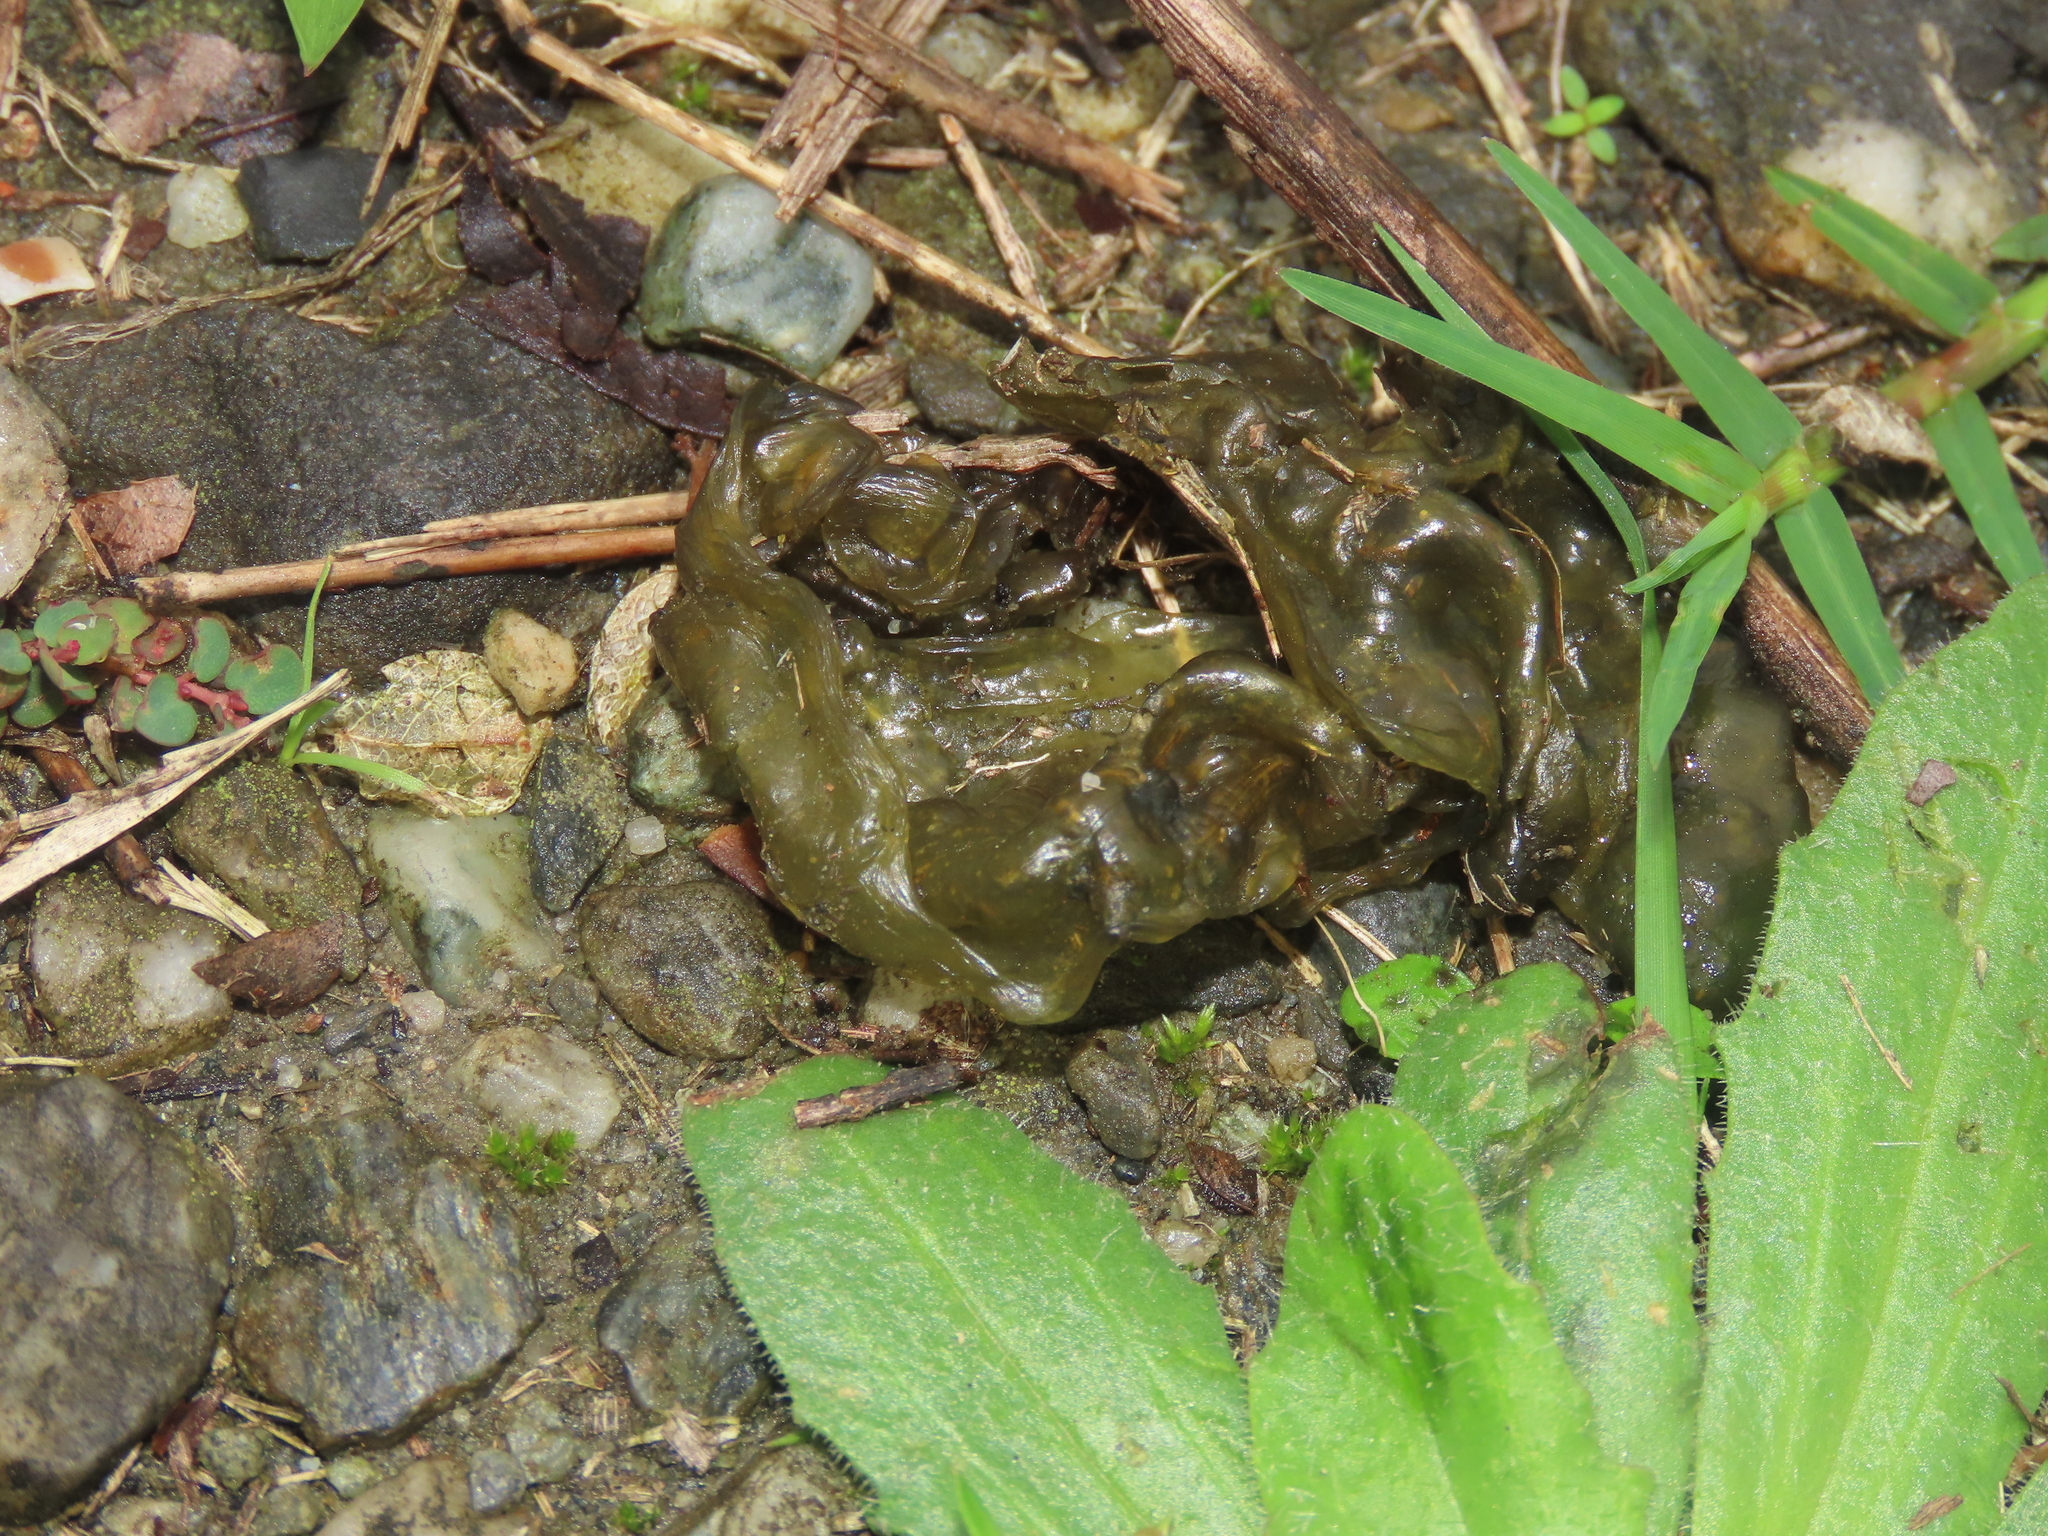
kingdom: Bacteria
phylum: Cyanobacteria
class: Cyanobacteriia
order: Cyanobacteriales
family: Nostocaceae
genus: Nostoc
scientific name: Nostoc commune
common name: Star jelly
